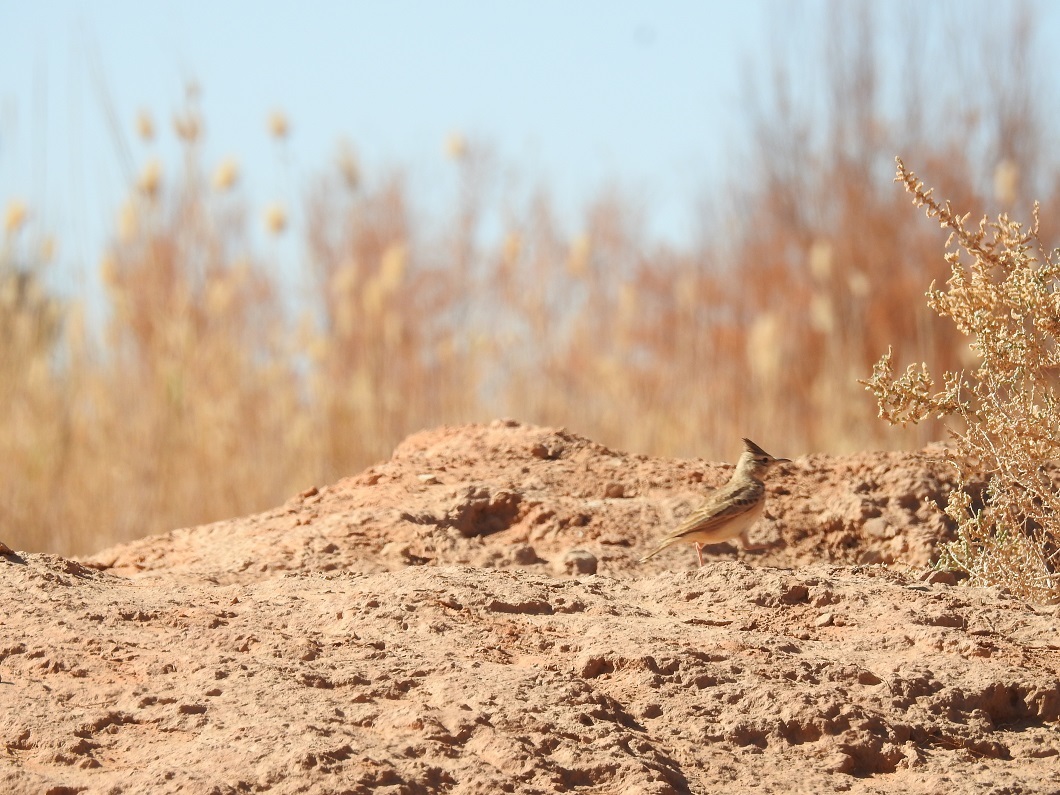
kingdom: Animalia
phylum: Chordata
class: Aves
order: Passeriformes
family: Alaudidae
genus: Galerida
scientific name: Galerida cristata
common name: Crested lark
